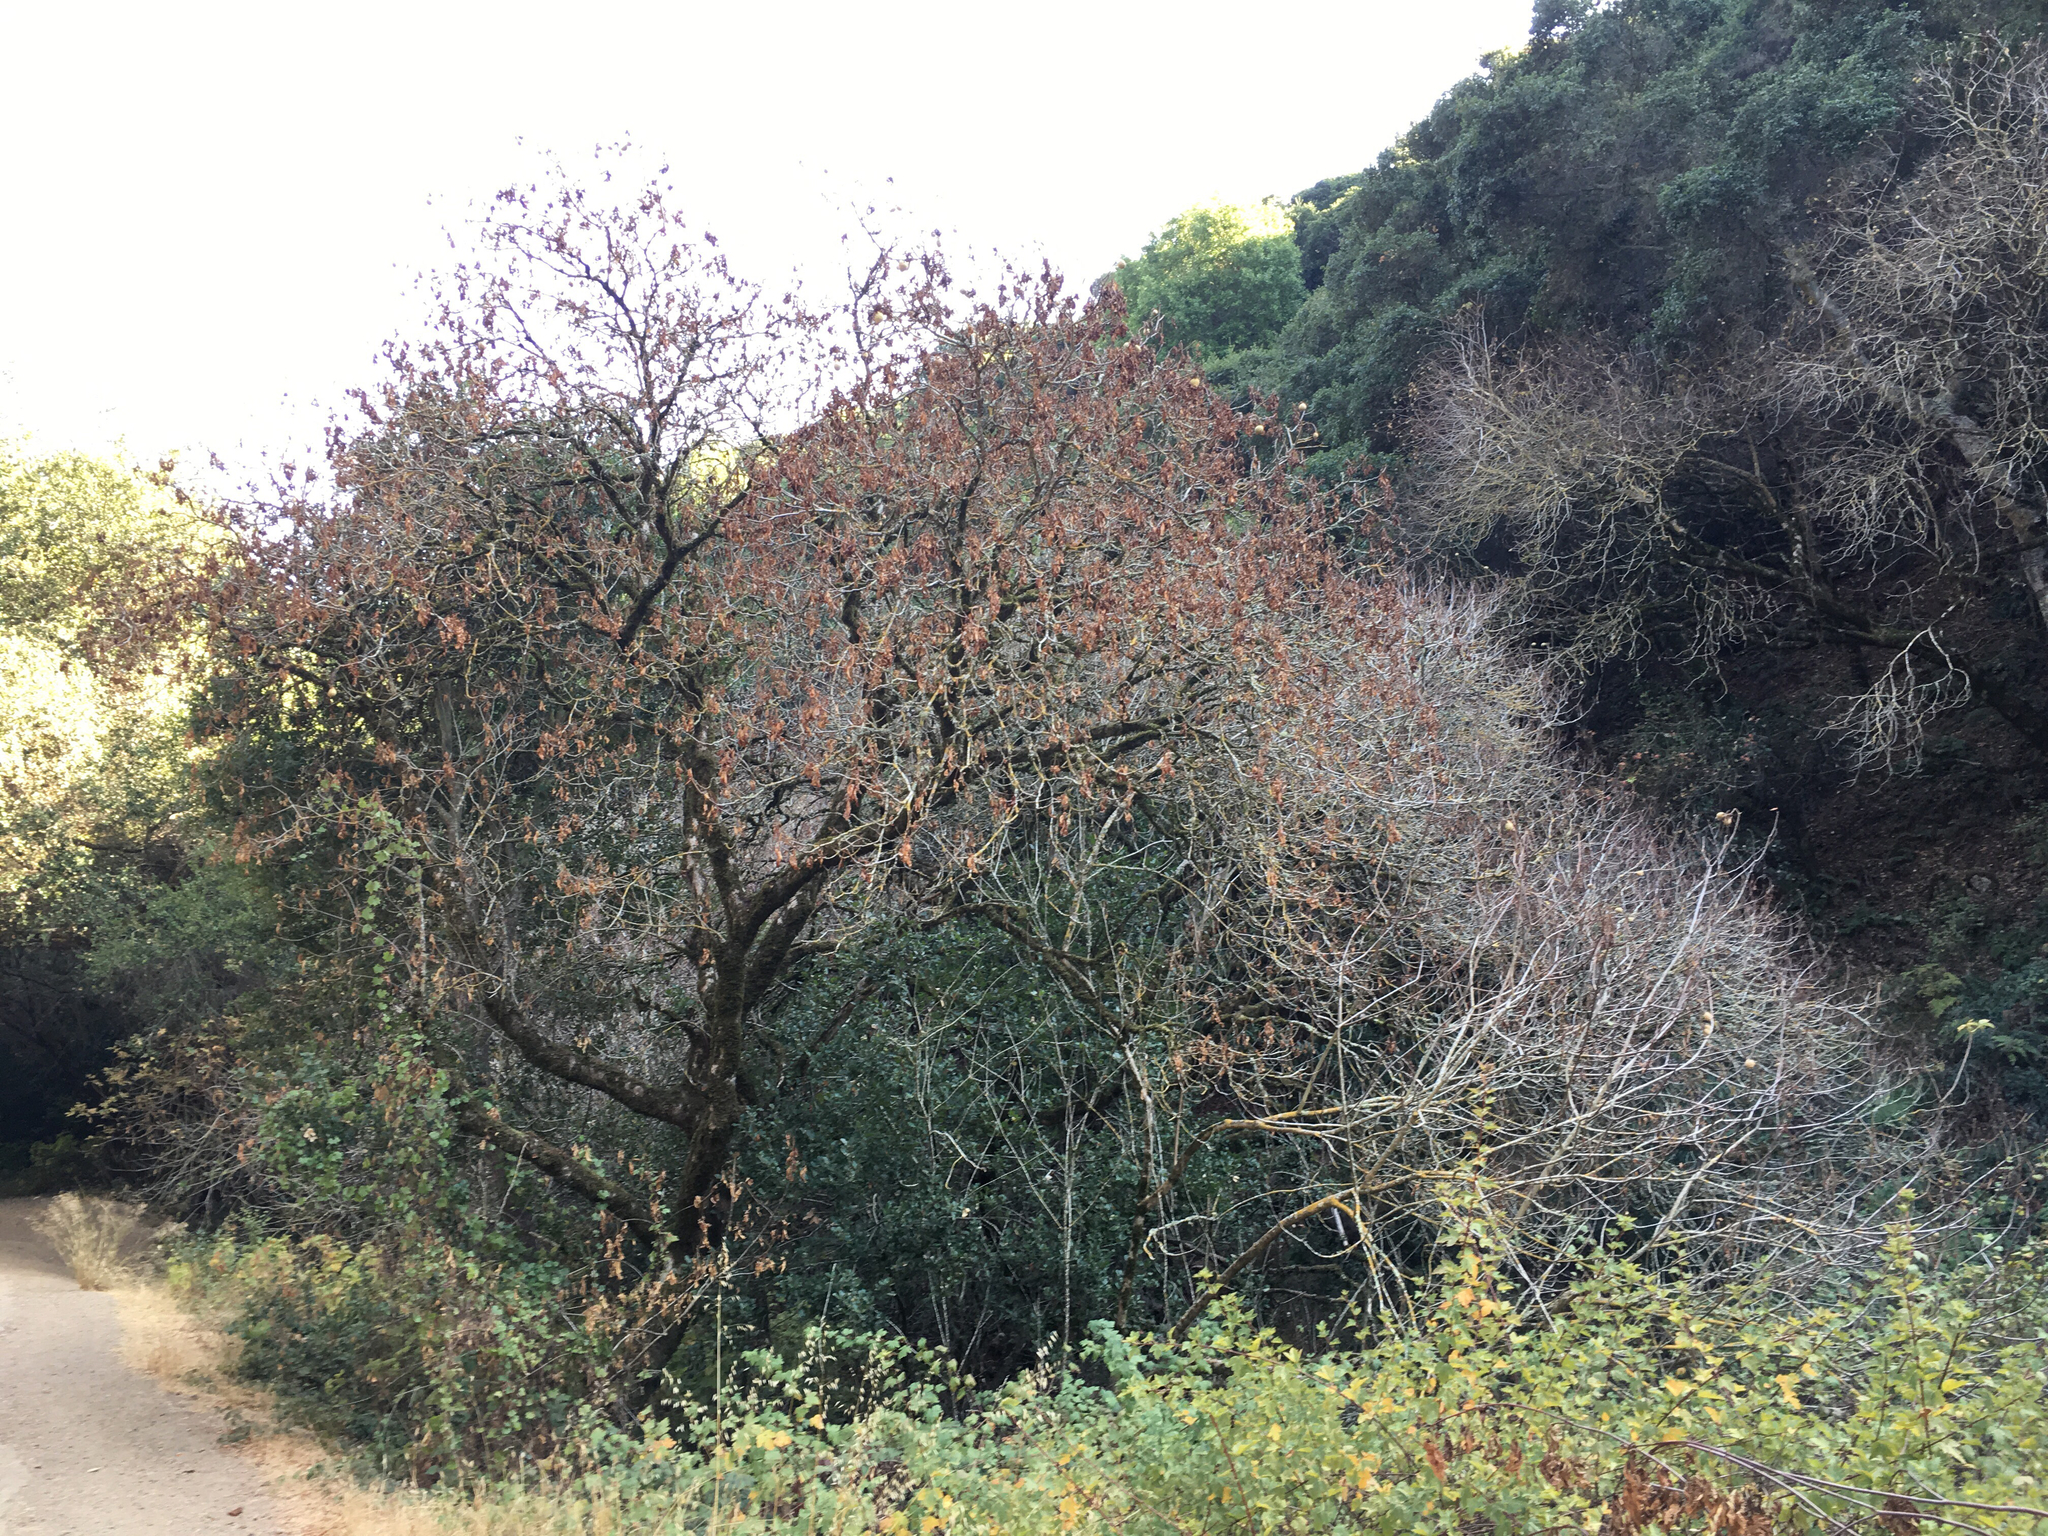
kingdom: Plantae
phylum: Tracheophyta
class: Magnoliopsida
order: Sapindales
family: Sapindaceae
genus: Aesculus
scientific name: Aesculus californica
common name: California buckeye
